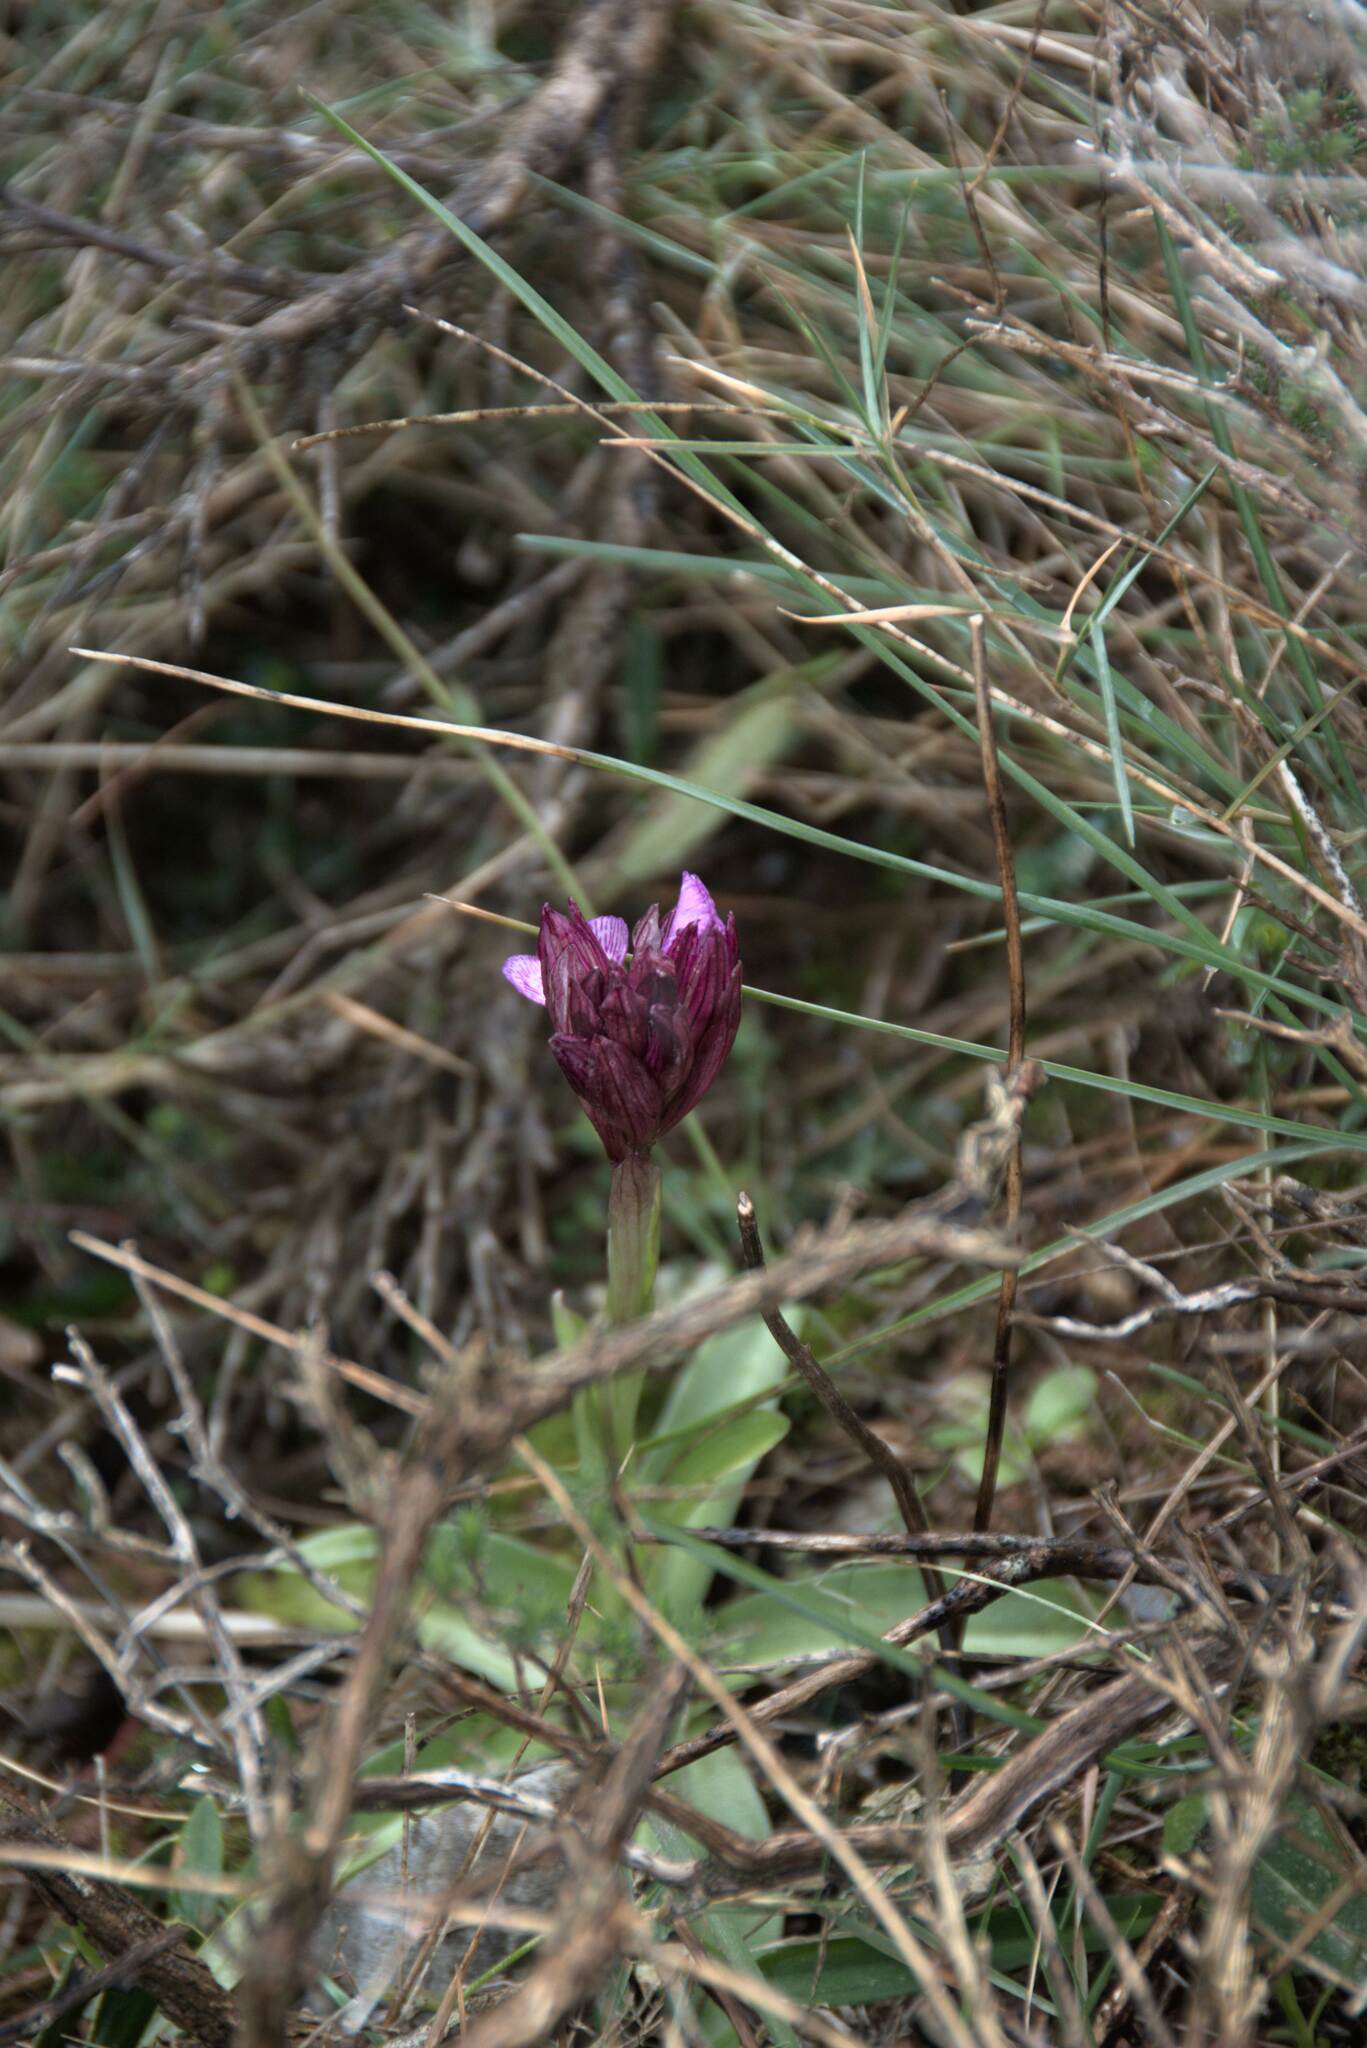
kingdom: Plantae
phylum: Tracheophyta
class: Liliopsida
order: Asparagales
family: Orchidaceae
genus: Anacamptis
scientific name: Anacamptis papilionacea
